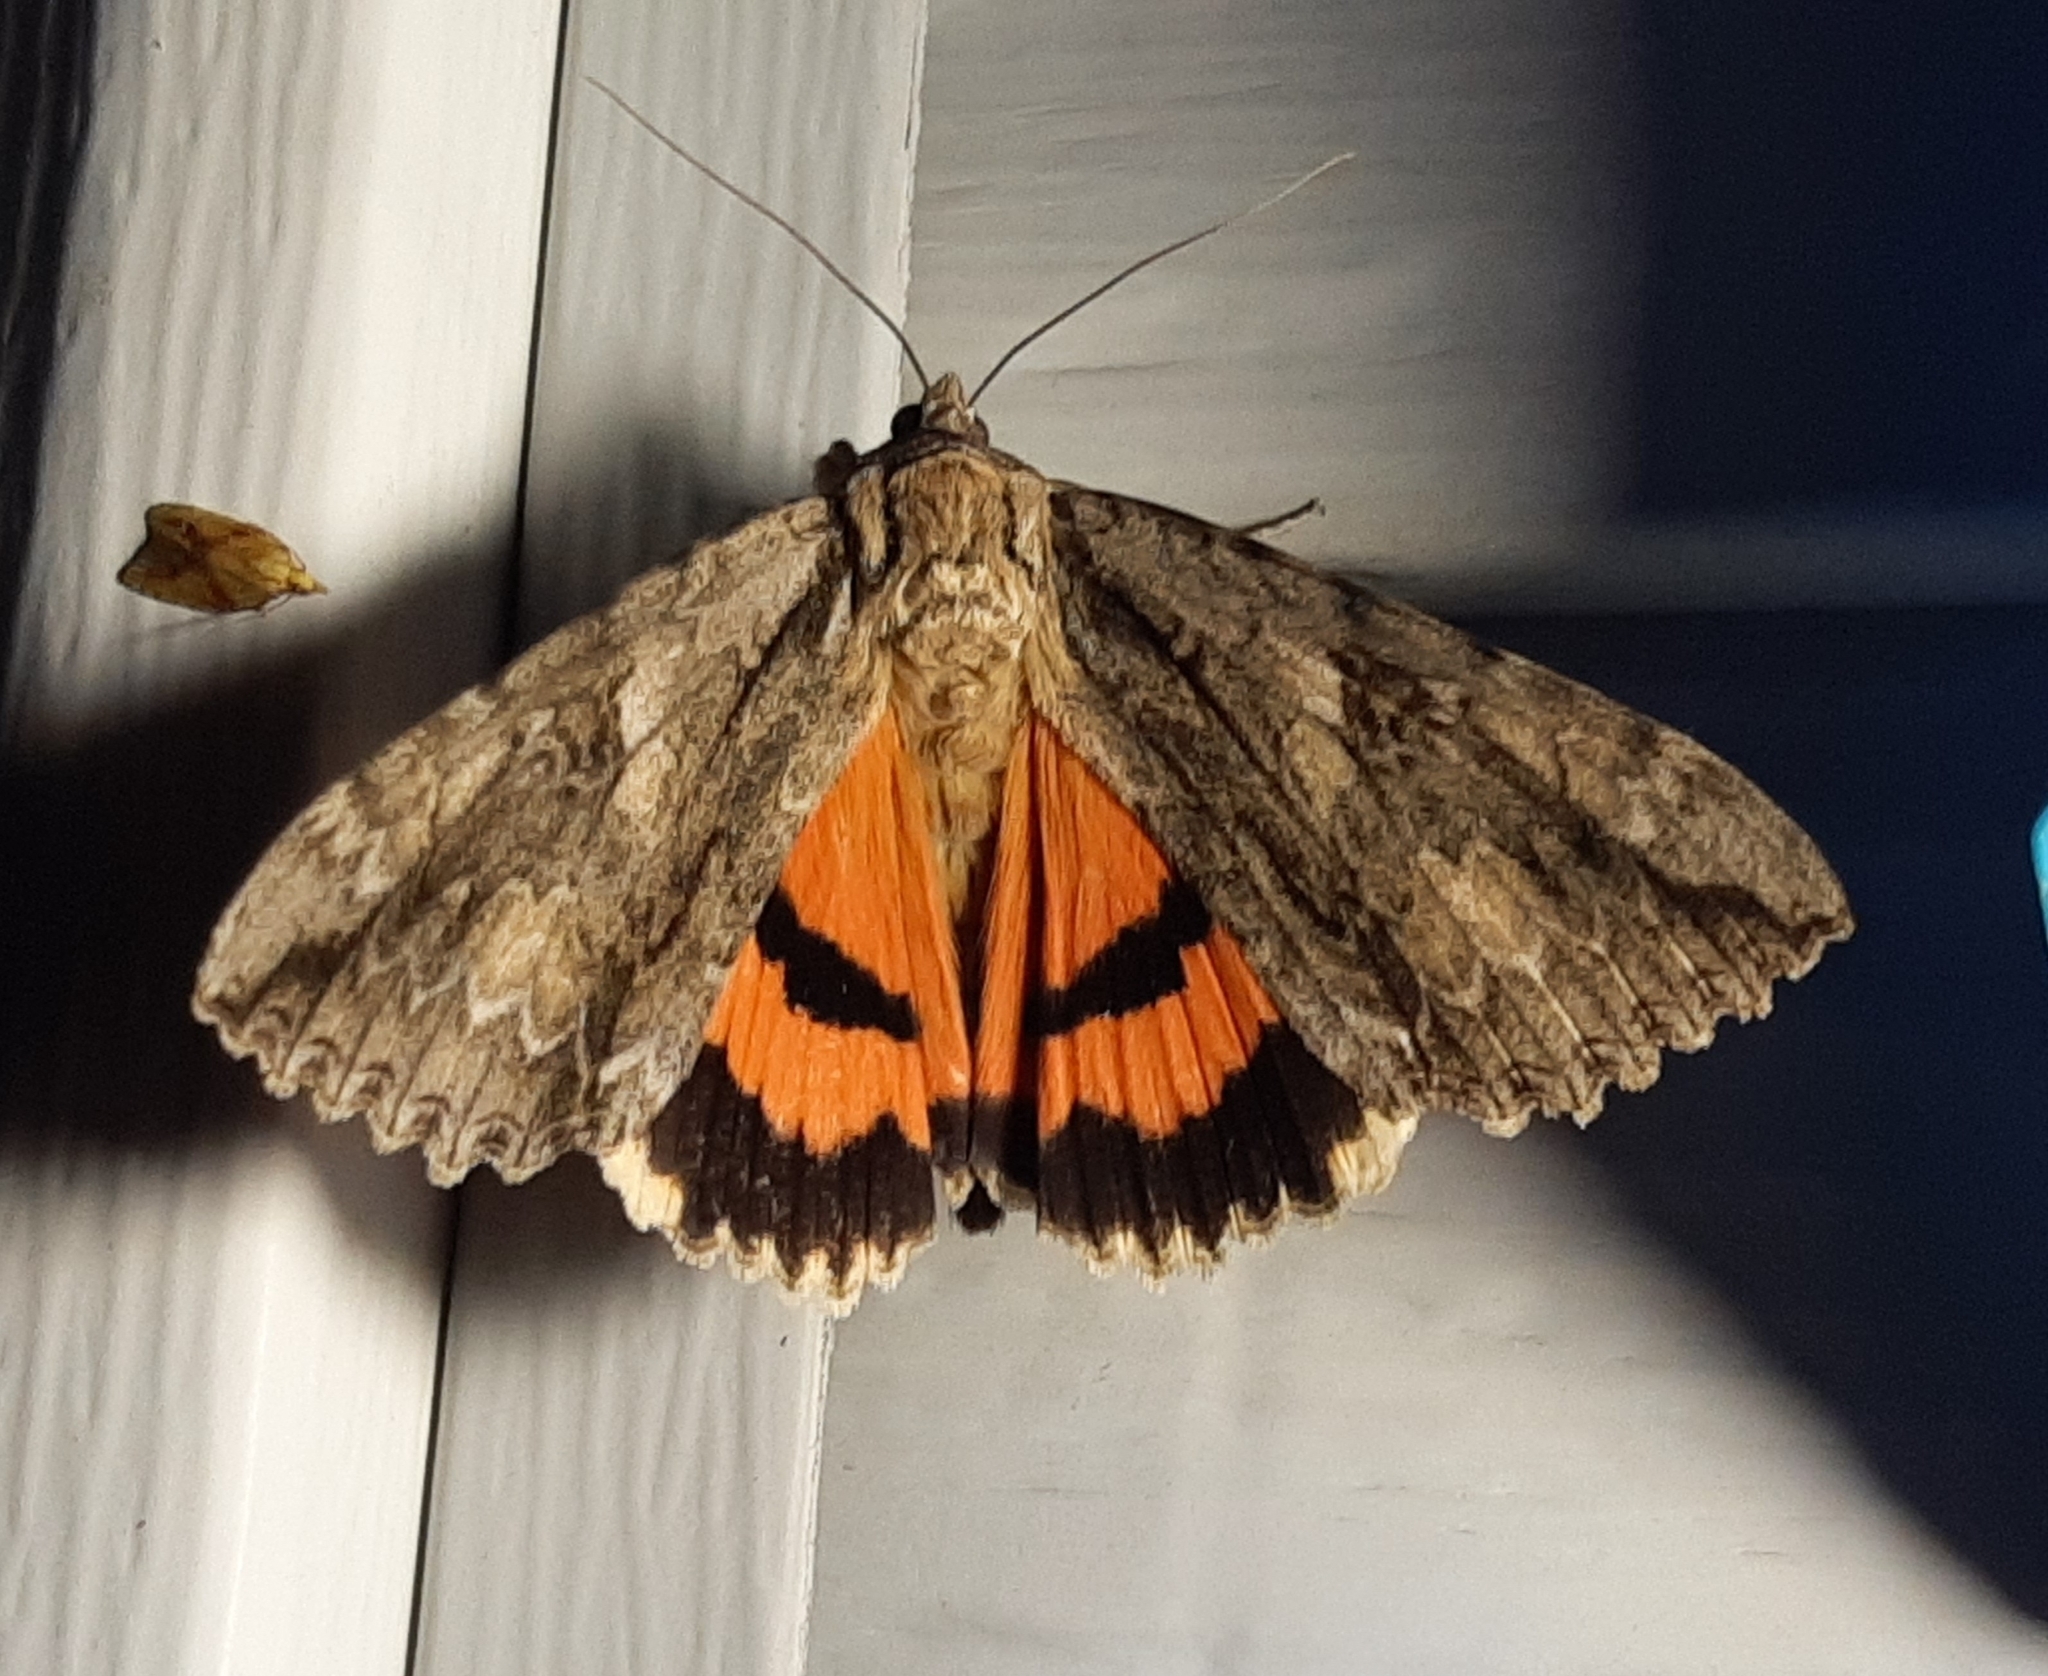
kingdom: Animalia
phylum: Arthropoda
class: Insecta
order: Lepidoptera
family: Erebidae
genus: Catocala
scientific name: Catocala parta
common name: Mother underwing
